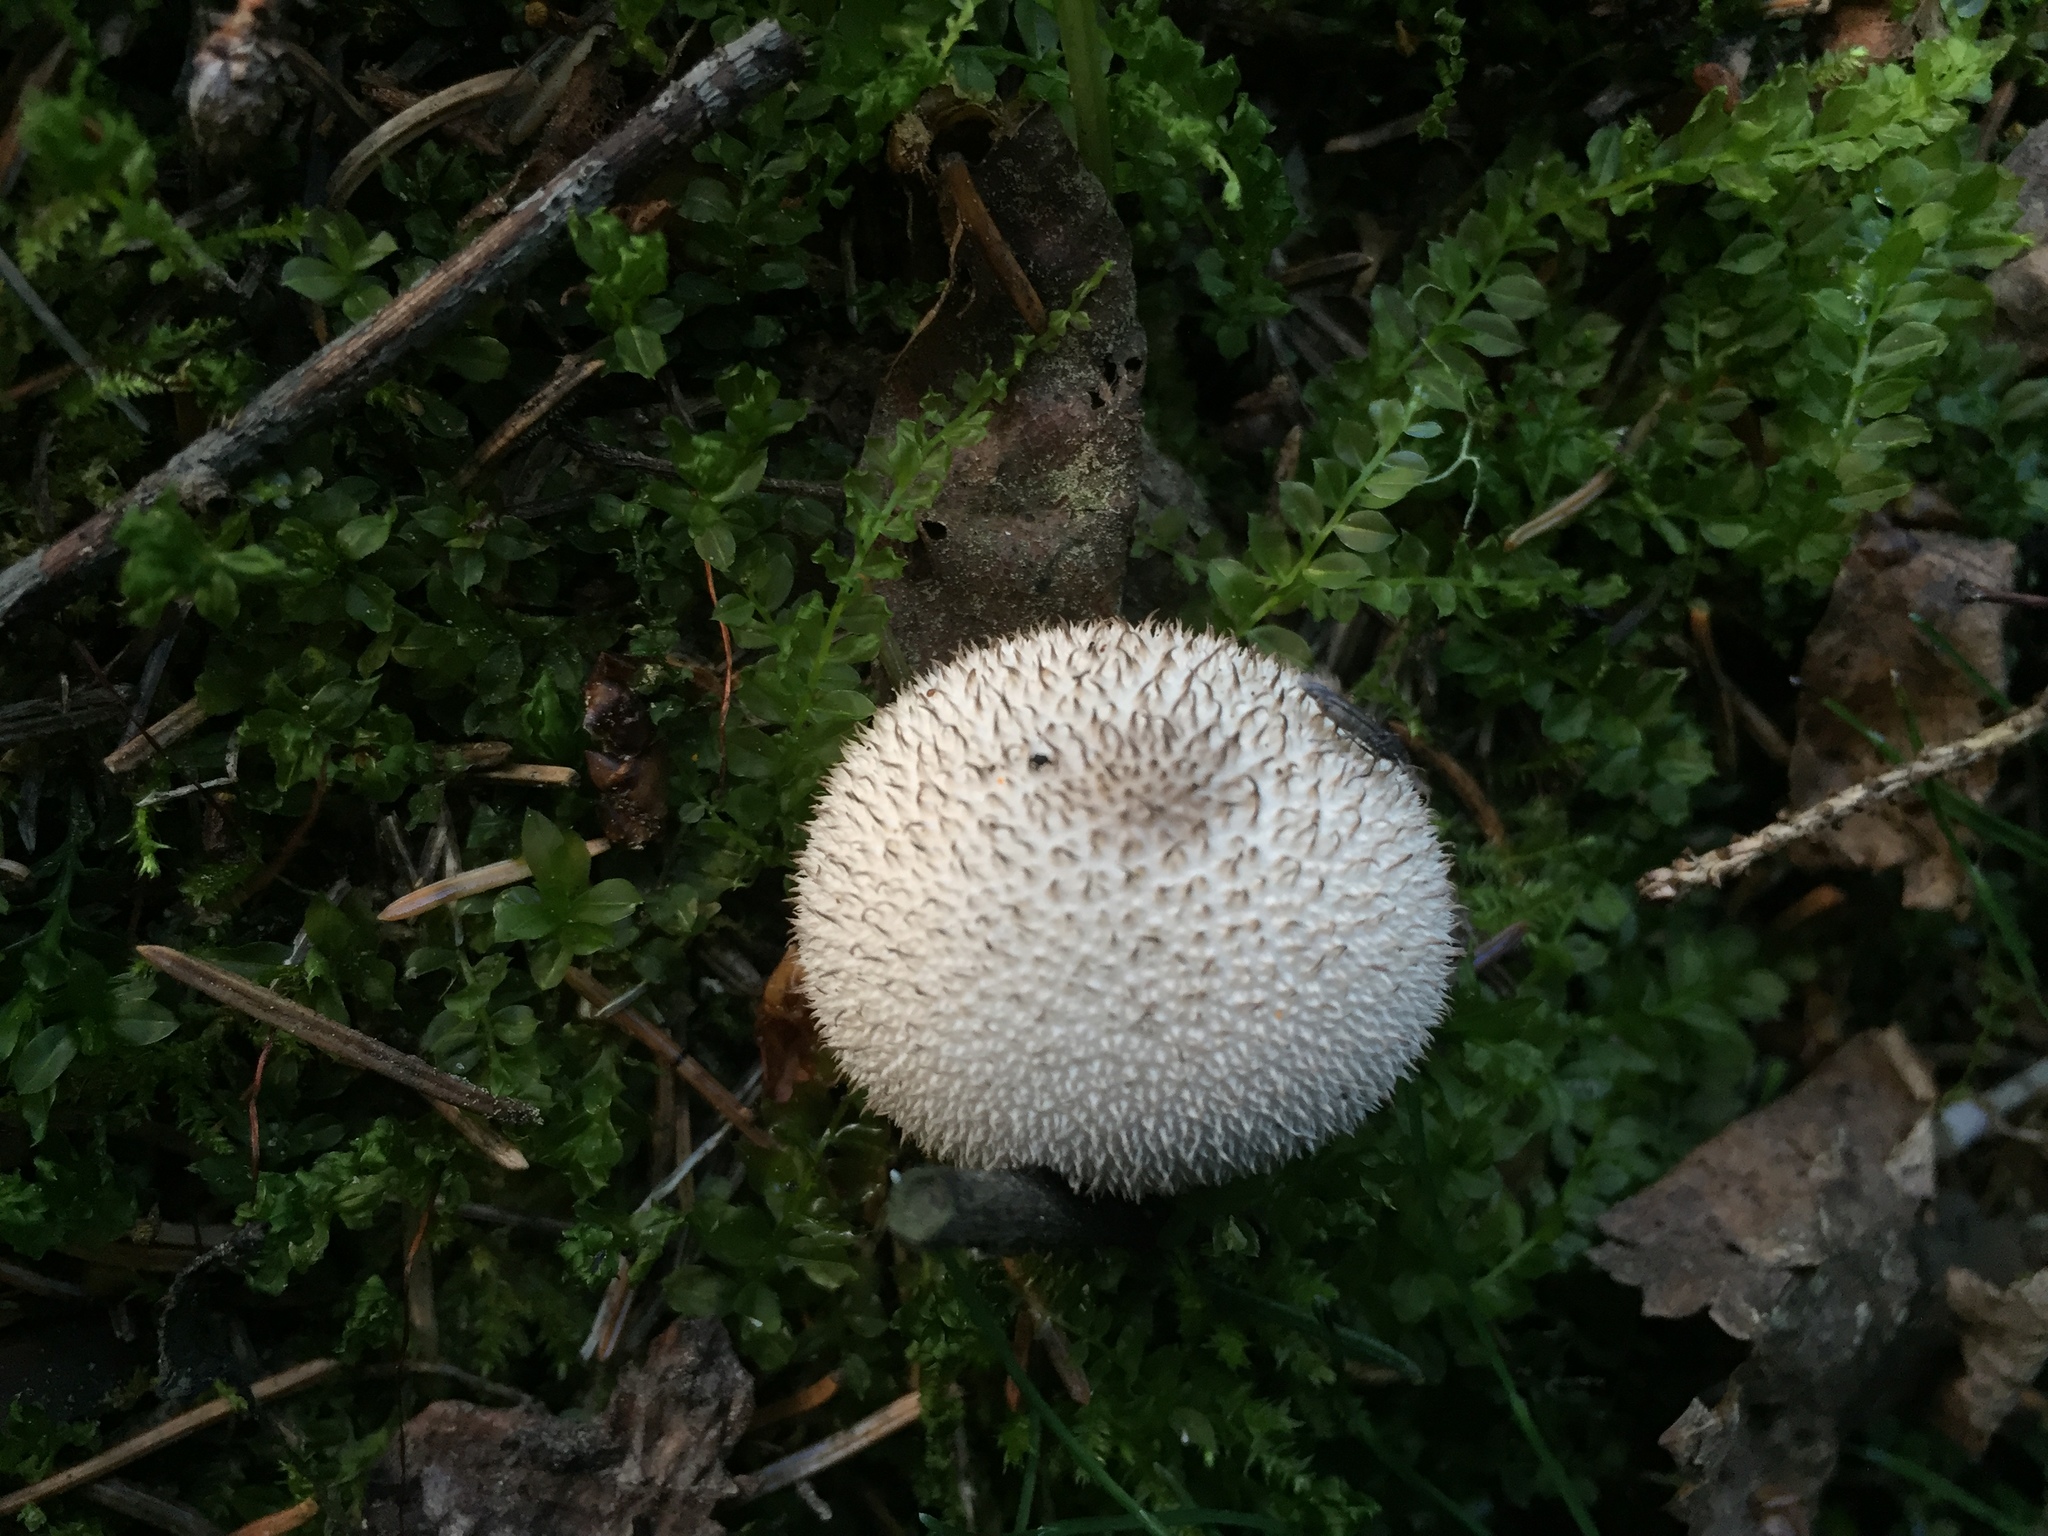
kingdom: Fungi
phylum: Basidiomycota
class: Agaricomycetes
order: Agaricales
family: Lycoperdaceae
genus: Lycoperdon
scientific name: Lycoperdon perlatum
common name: Common puffball
